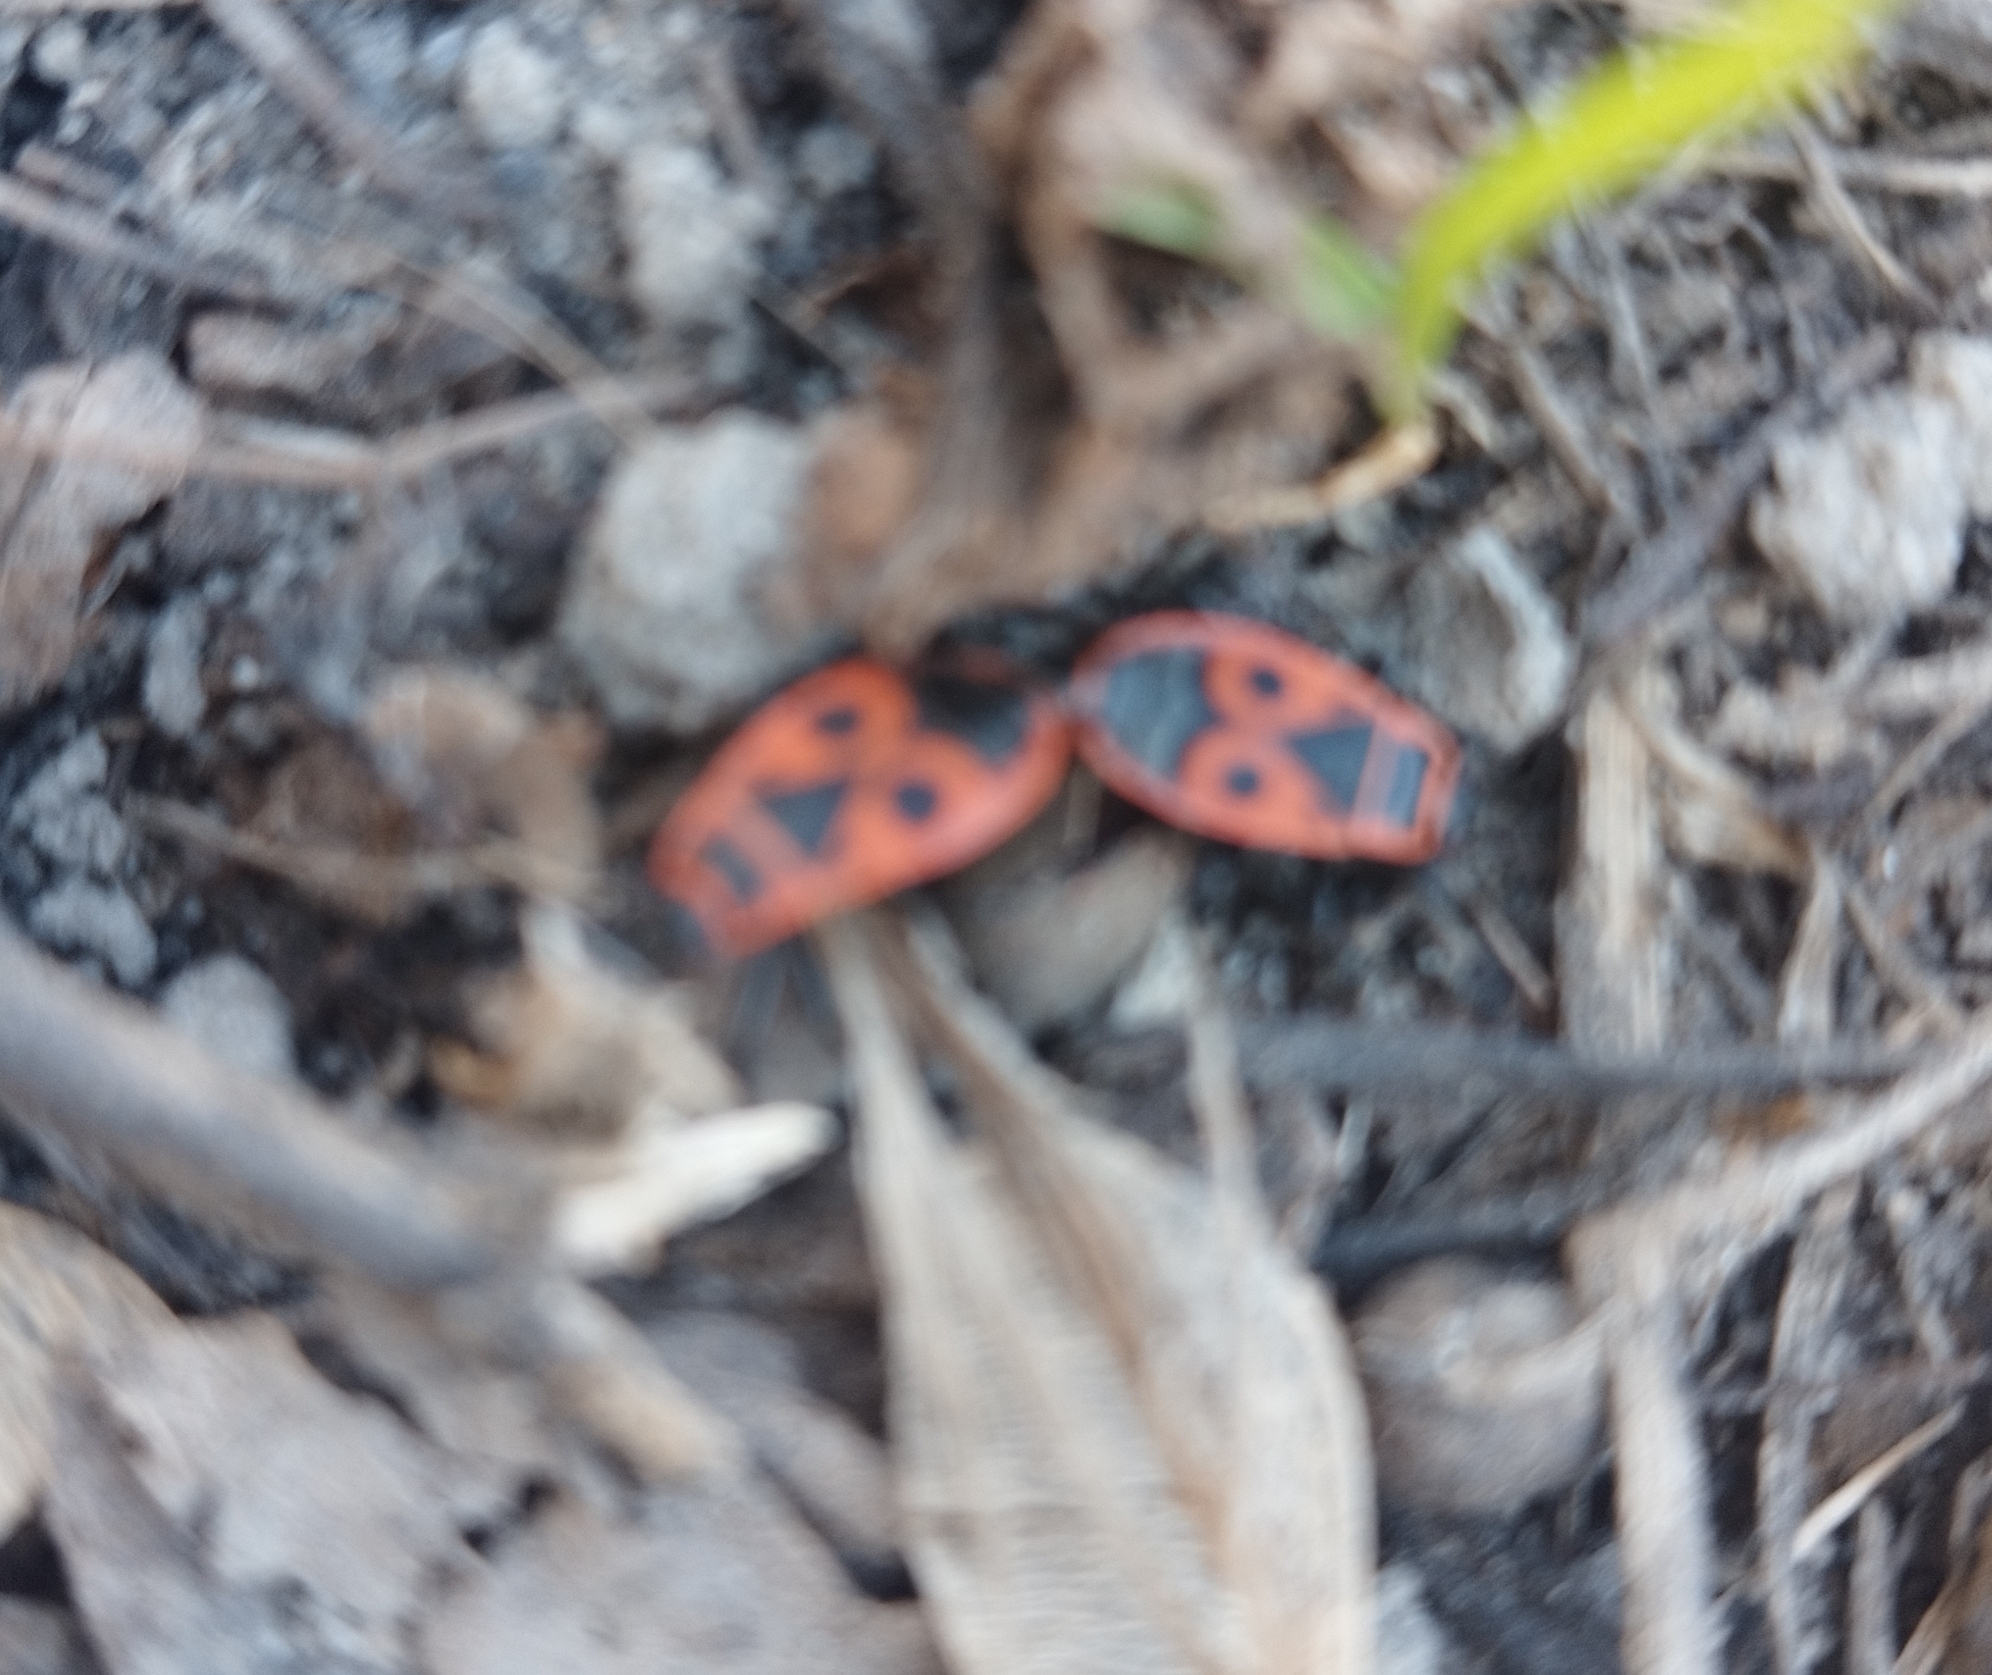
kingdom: Animalia
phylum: Arthropoda
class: Insecta
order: Hemiptera
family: Pyrrhocoridae
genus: Pyrrhocoris
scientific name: Pyrrhocoris apterus
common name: Firebug
